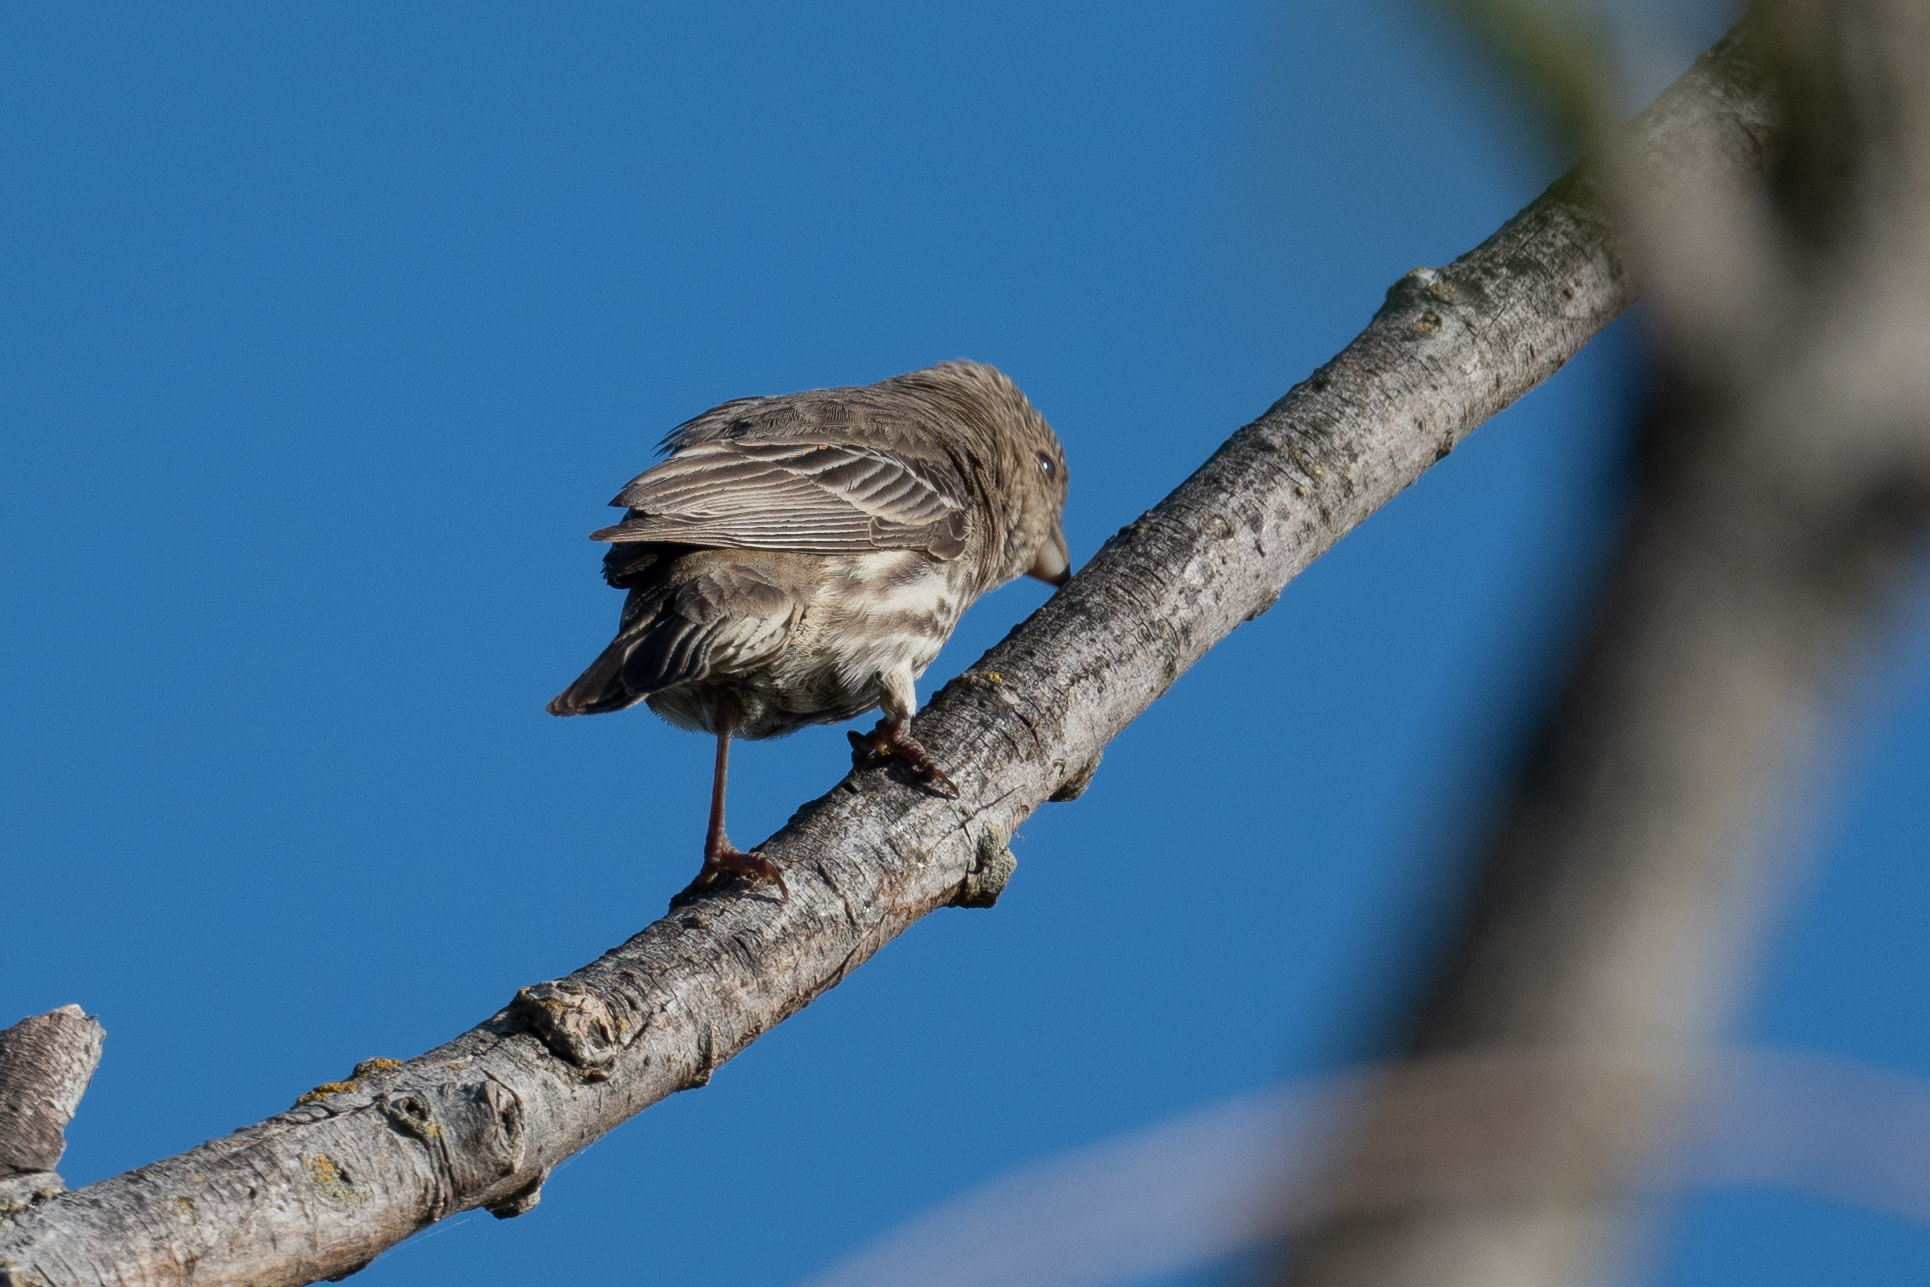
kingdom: Animalia
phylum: Chordata
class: Aves
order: Passeriformes
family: Fringillidae
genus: Haemorhous
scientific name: Haemorhous mexicanus
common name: House finch
